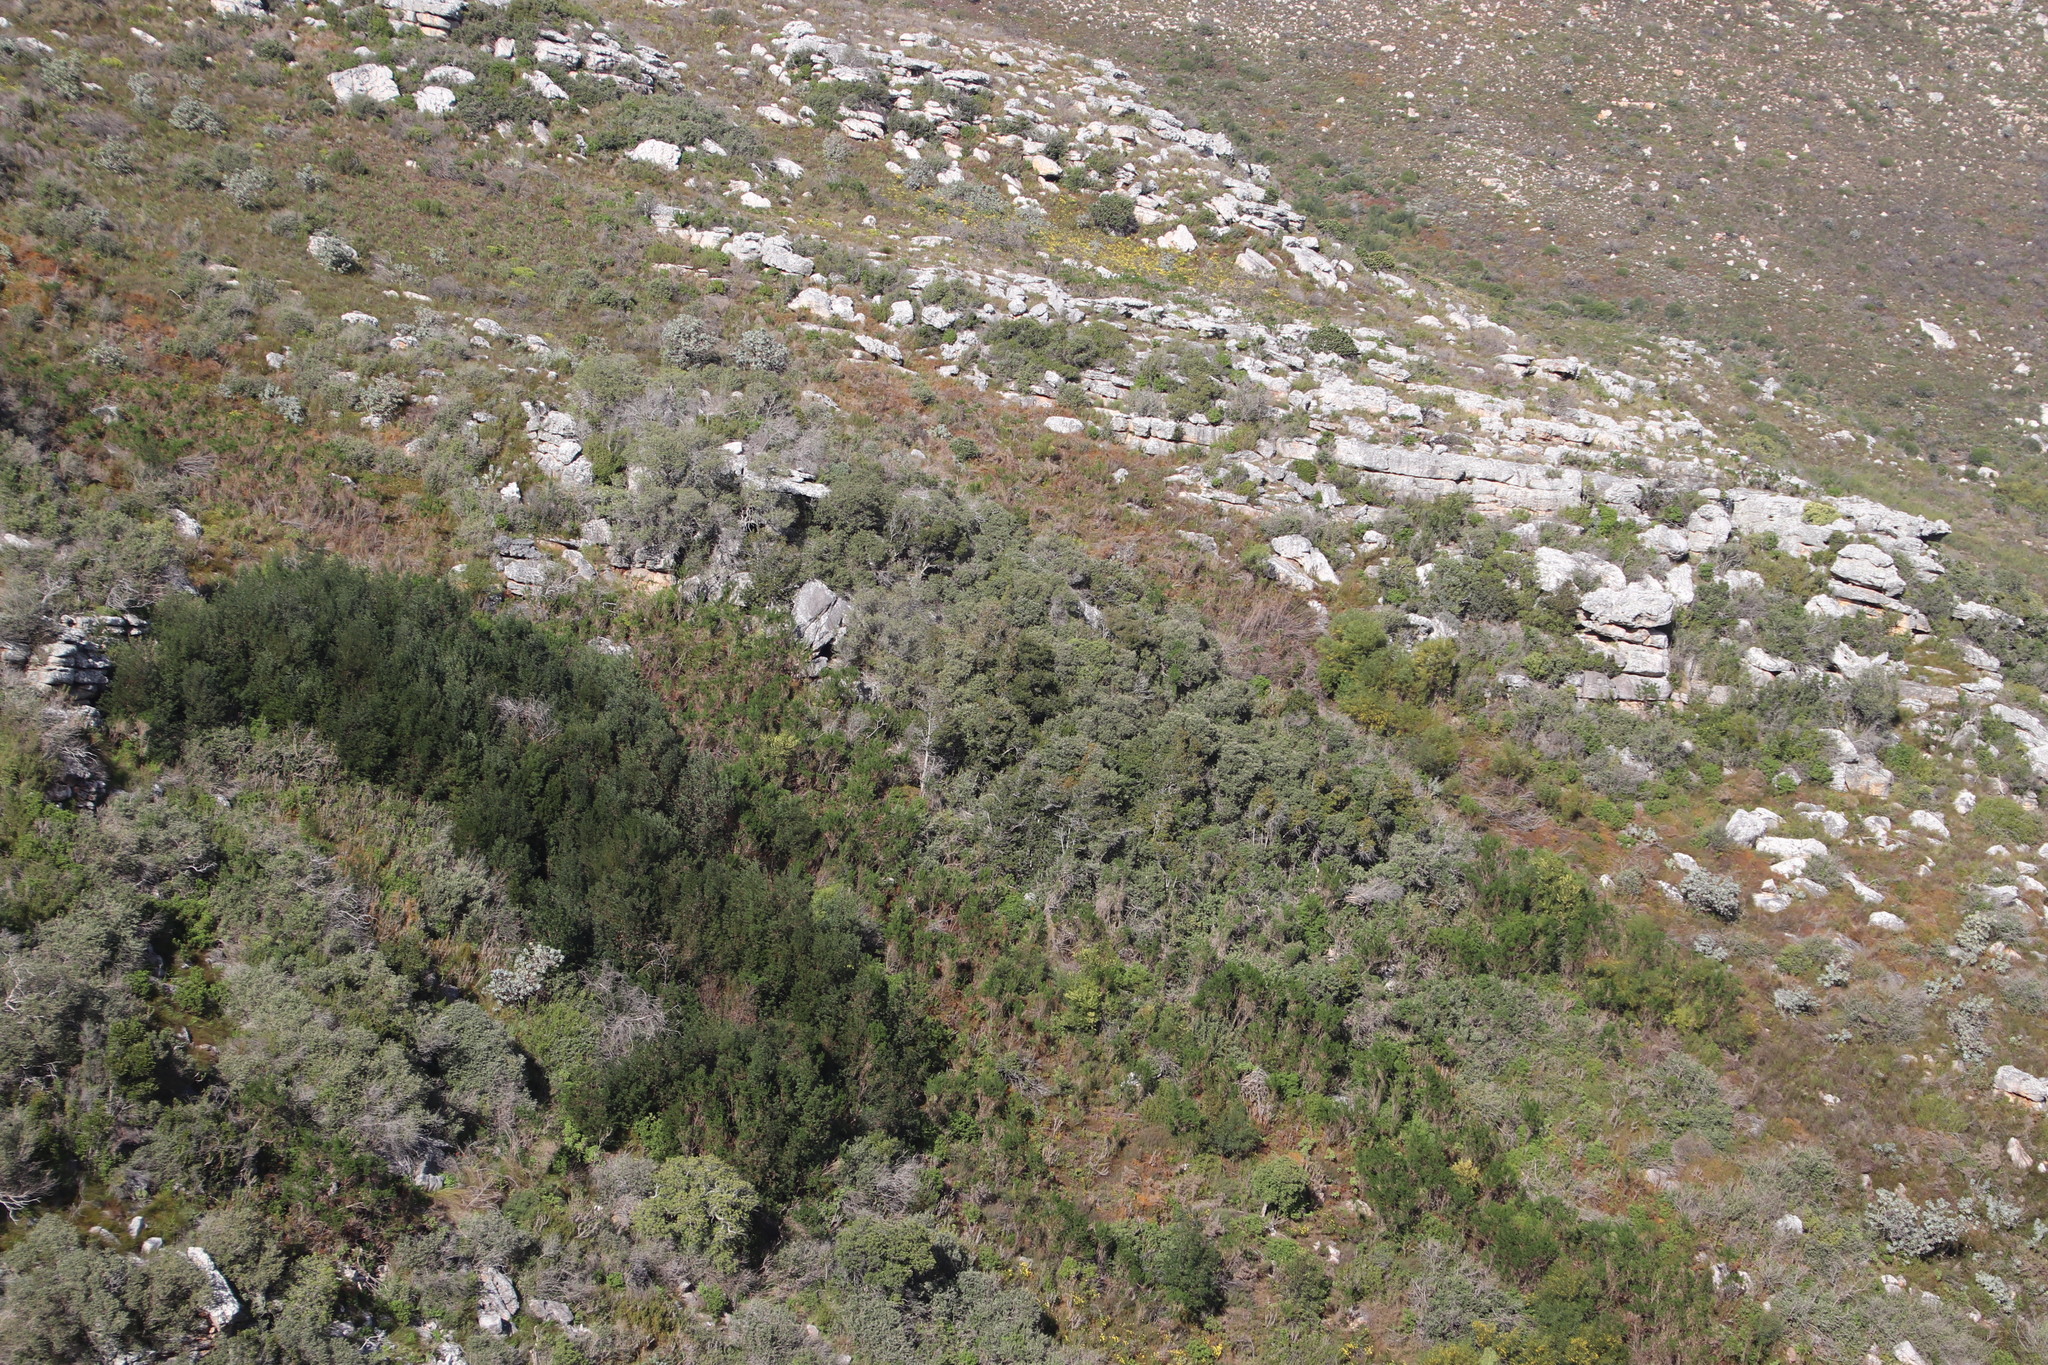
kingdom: Plantae
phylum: Tracheophyta
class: Magnoliopsida
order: Asterales
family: Asteraceae
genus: Tarchonanthus
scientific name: Tarchonanthus littoralis
